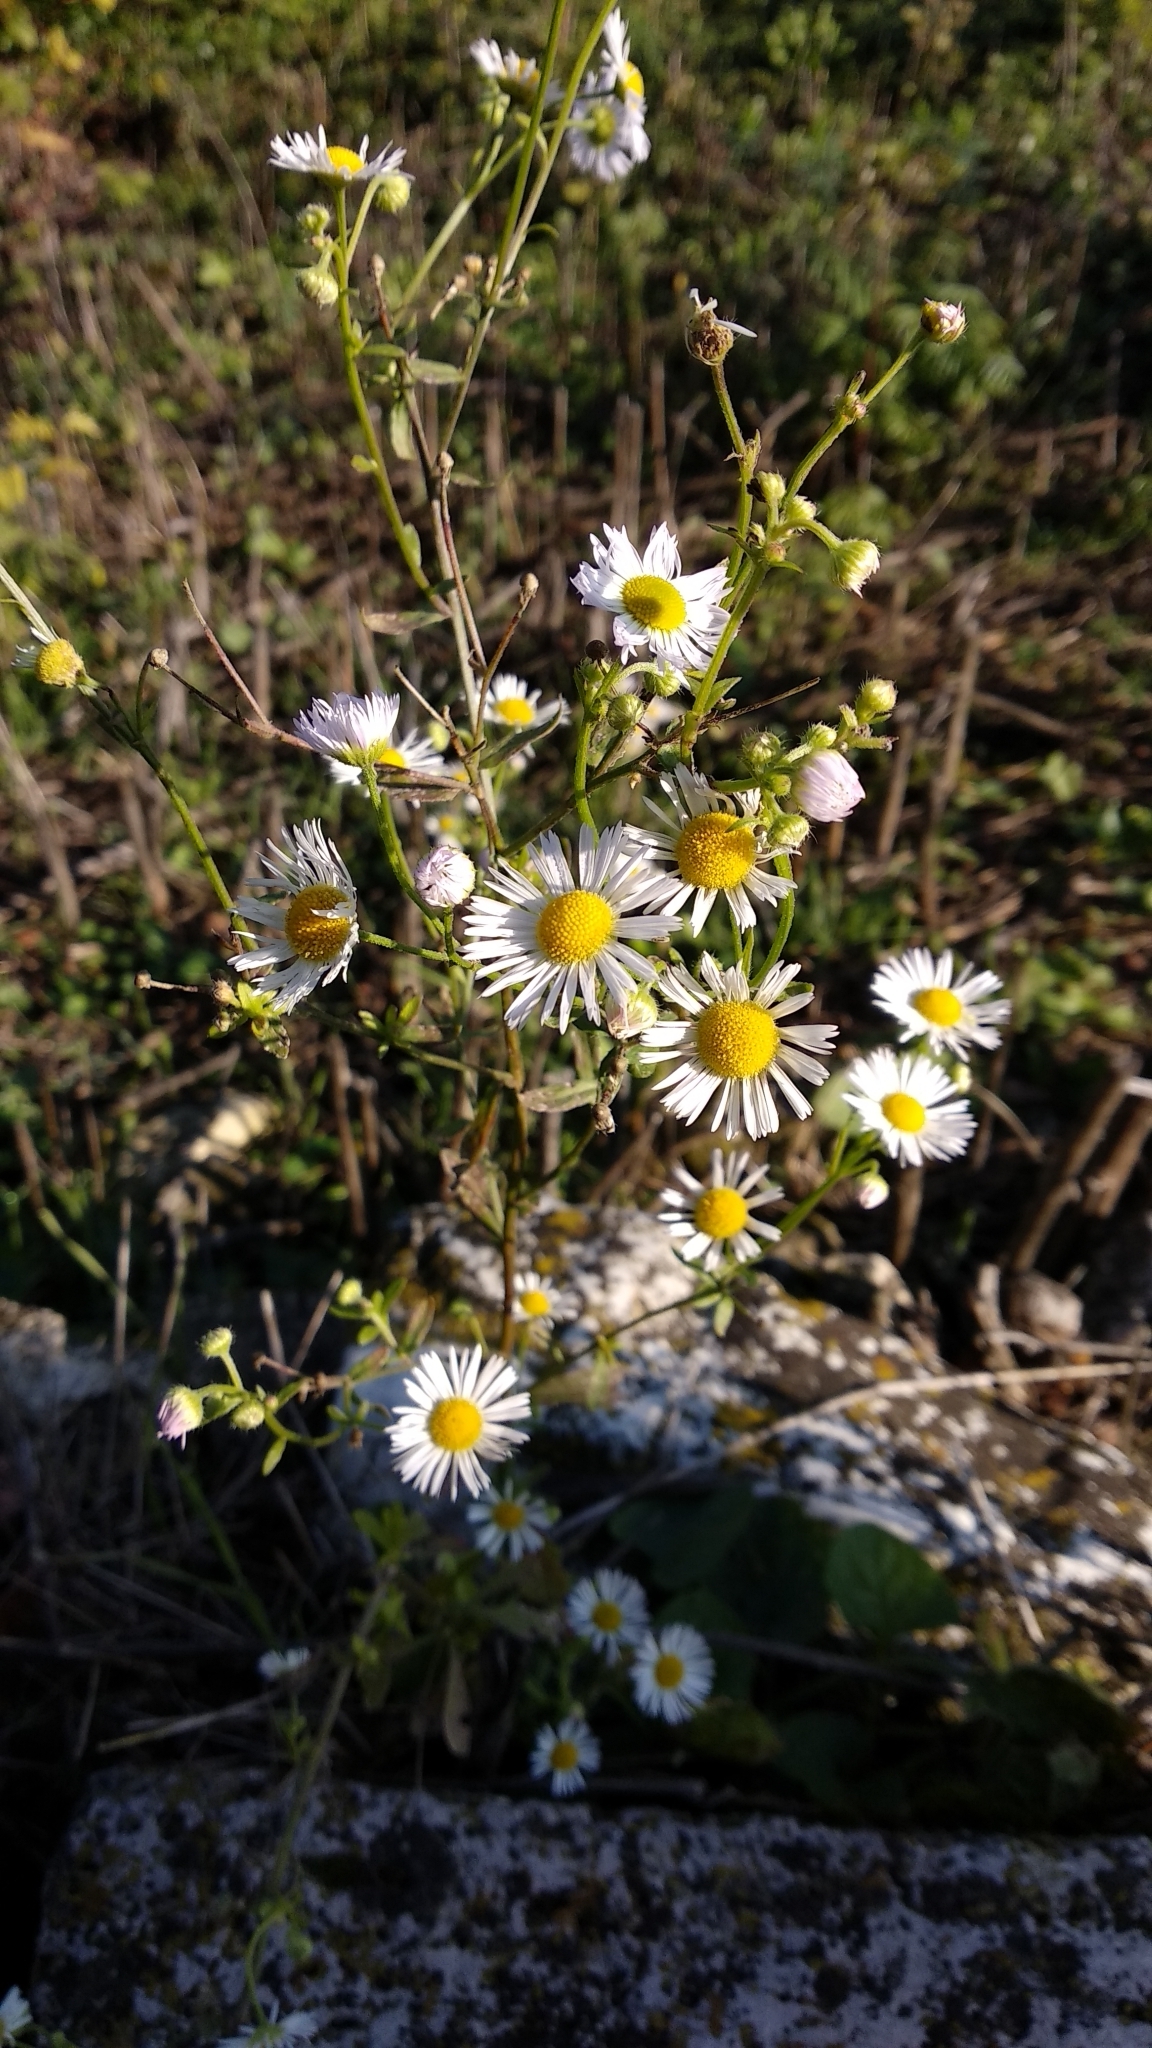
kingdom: Plantae
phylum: Tracheophyta
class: Magnoliopsida
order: Asterales
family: Asteraceae
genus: Erigeron
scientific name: Erigeron annuus
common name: Tall fleabane
